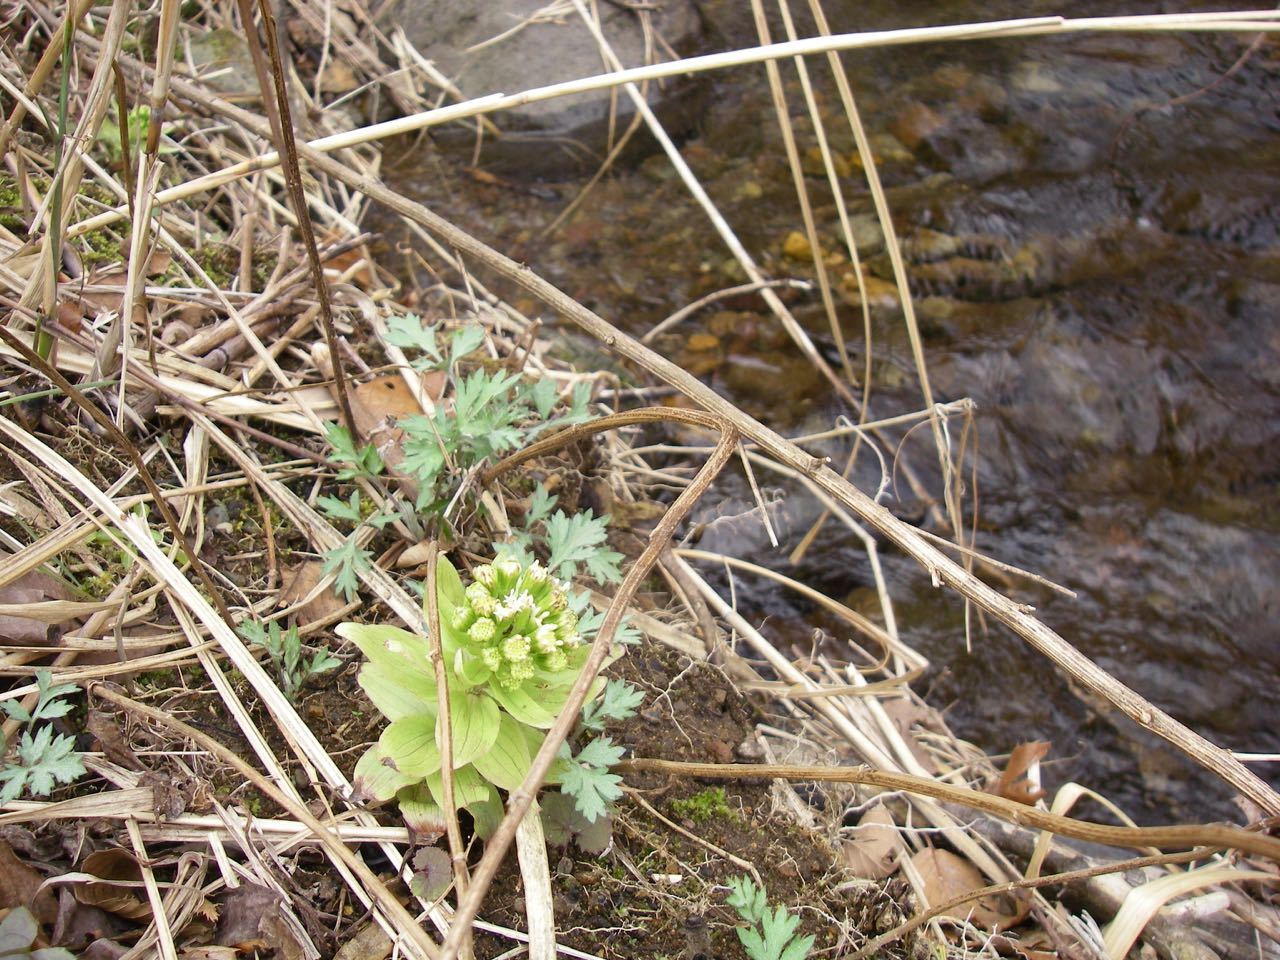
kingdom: Plantae
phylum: Tracheophyta
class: Magnoliopsida
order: Asterales
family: Asteraceae
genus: Petasites
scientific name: Petasites japonicus
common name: Giant butterbur
